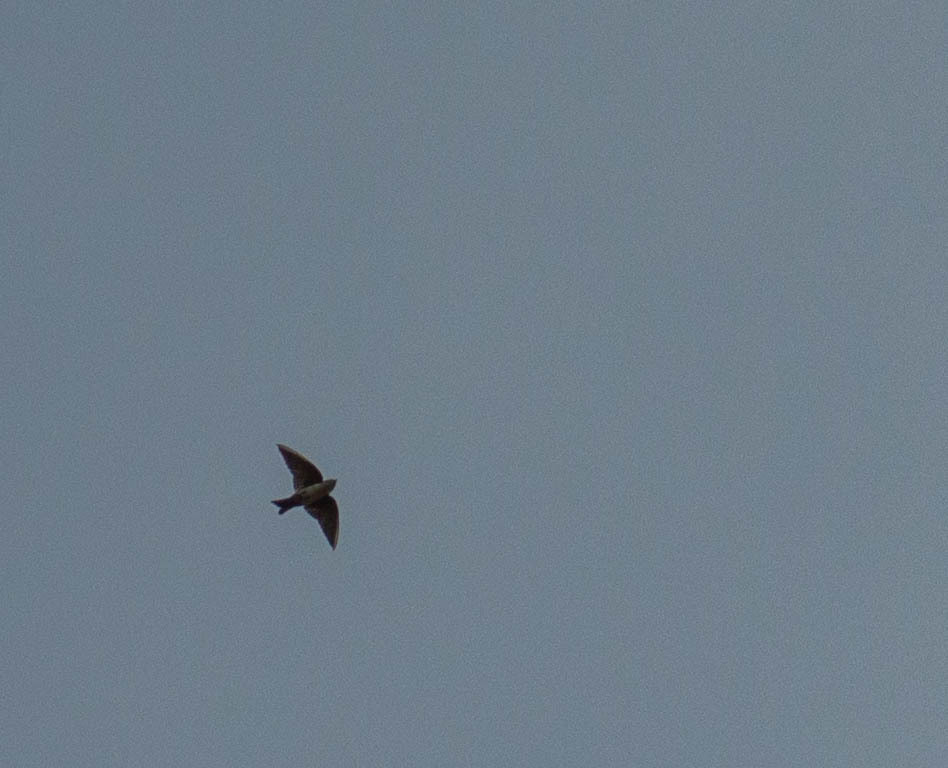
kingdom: Animalia
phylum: Chordata
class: Aves
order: Passeriformes
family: Hirundinidae
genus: Notiochelidon
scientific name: Notiochelidon cyanoleuca
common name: Blue-and-white swallow
